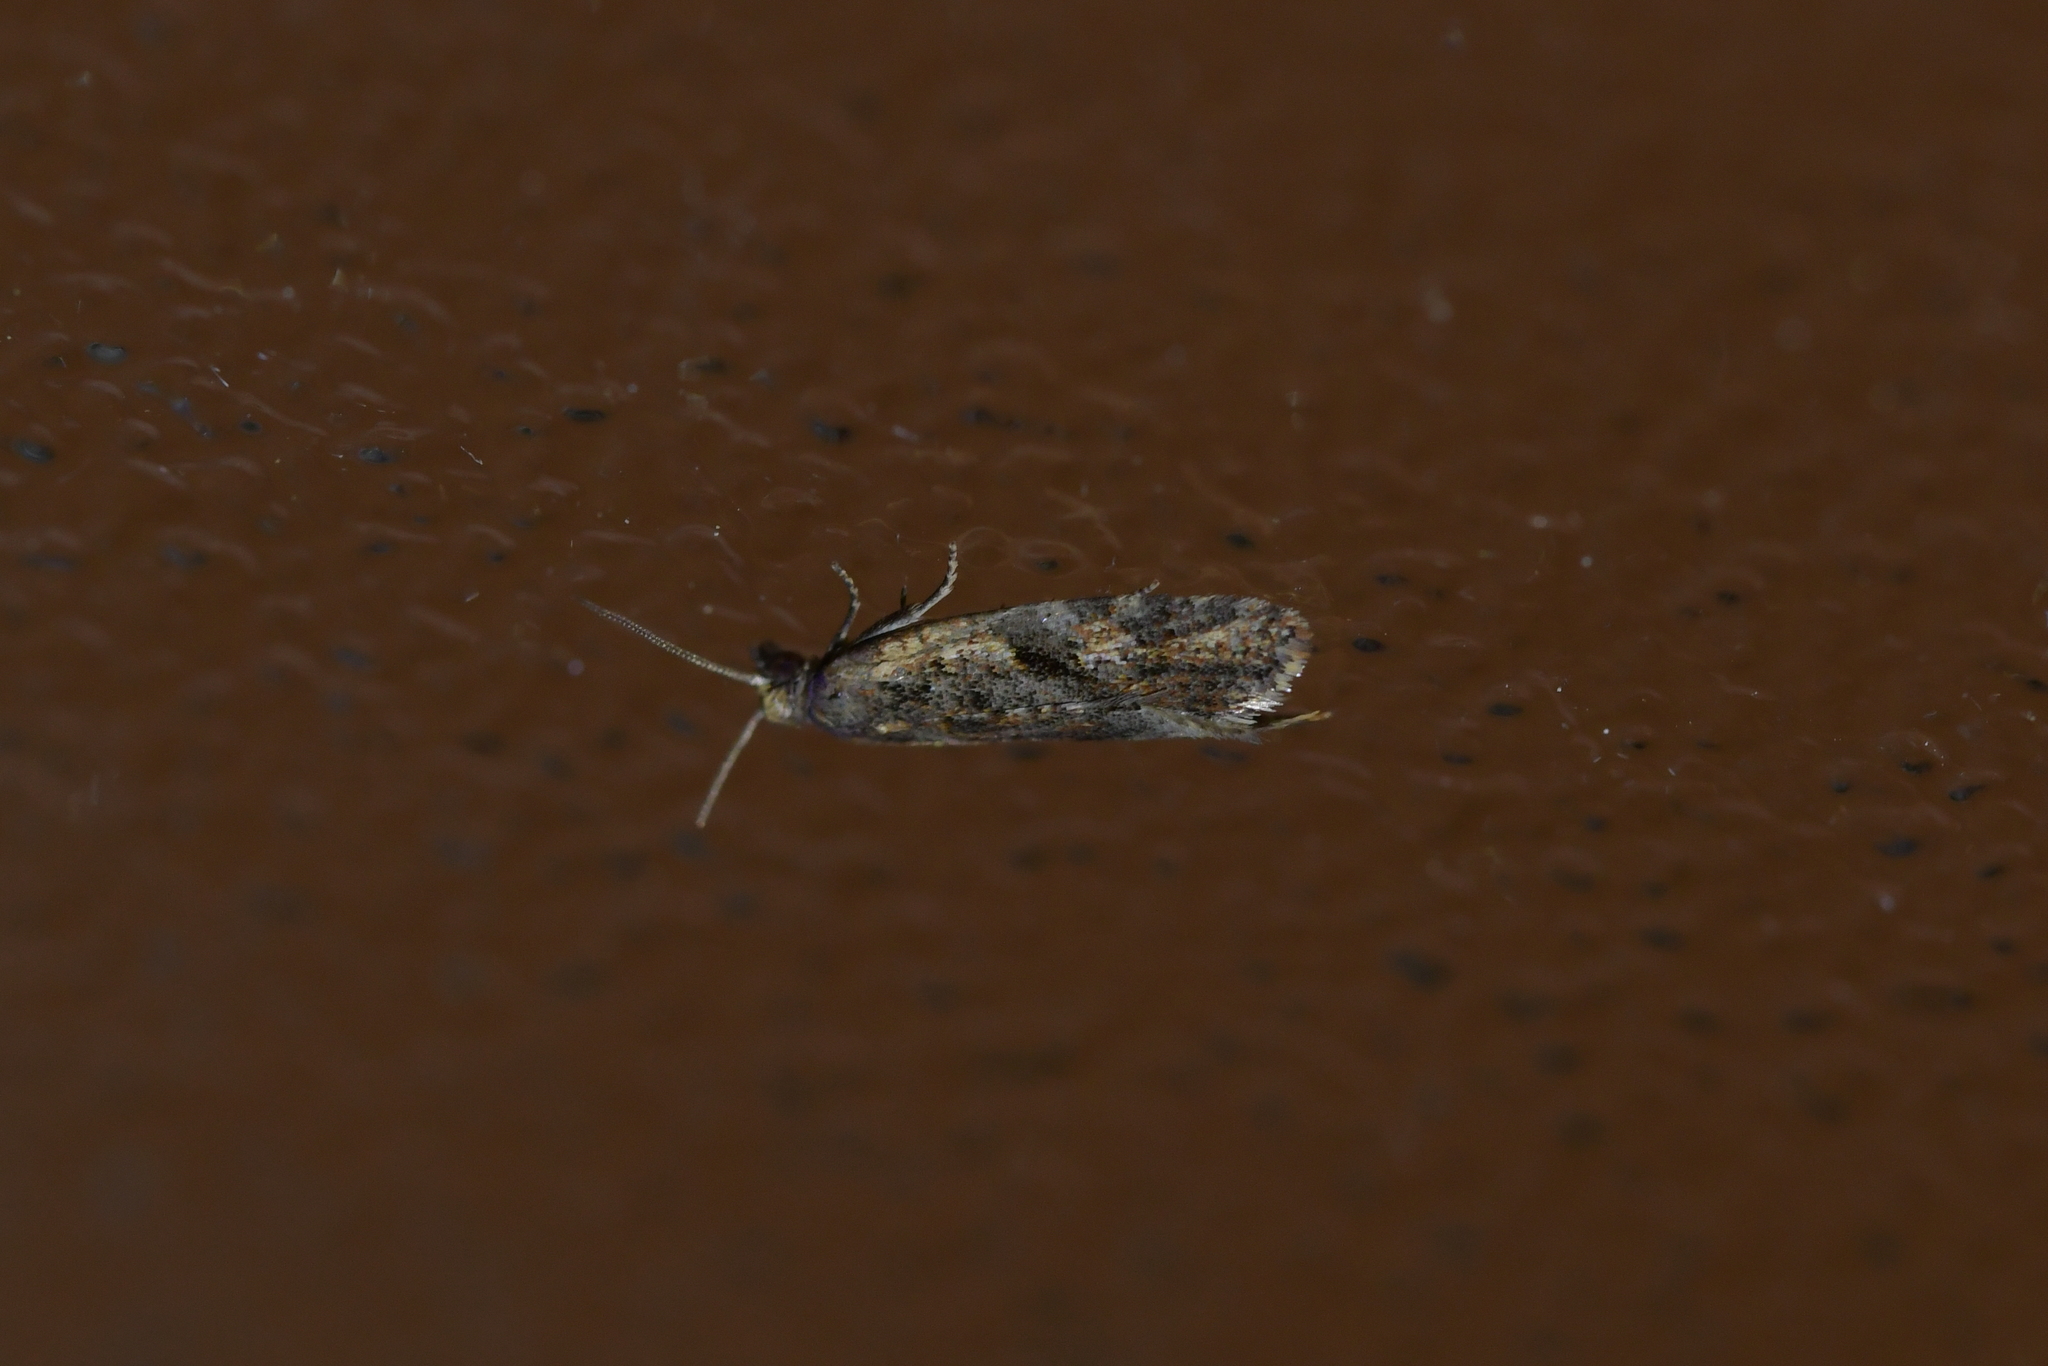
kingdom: Animalia
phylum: Arthropoda
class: Insecta
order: Lepidoptera
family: Tortricidae
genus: Capua
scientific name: Capua semiferana
